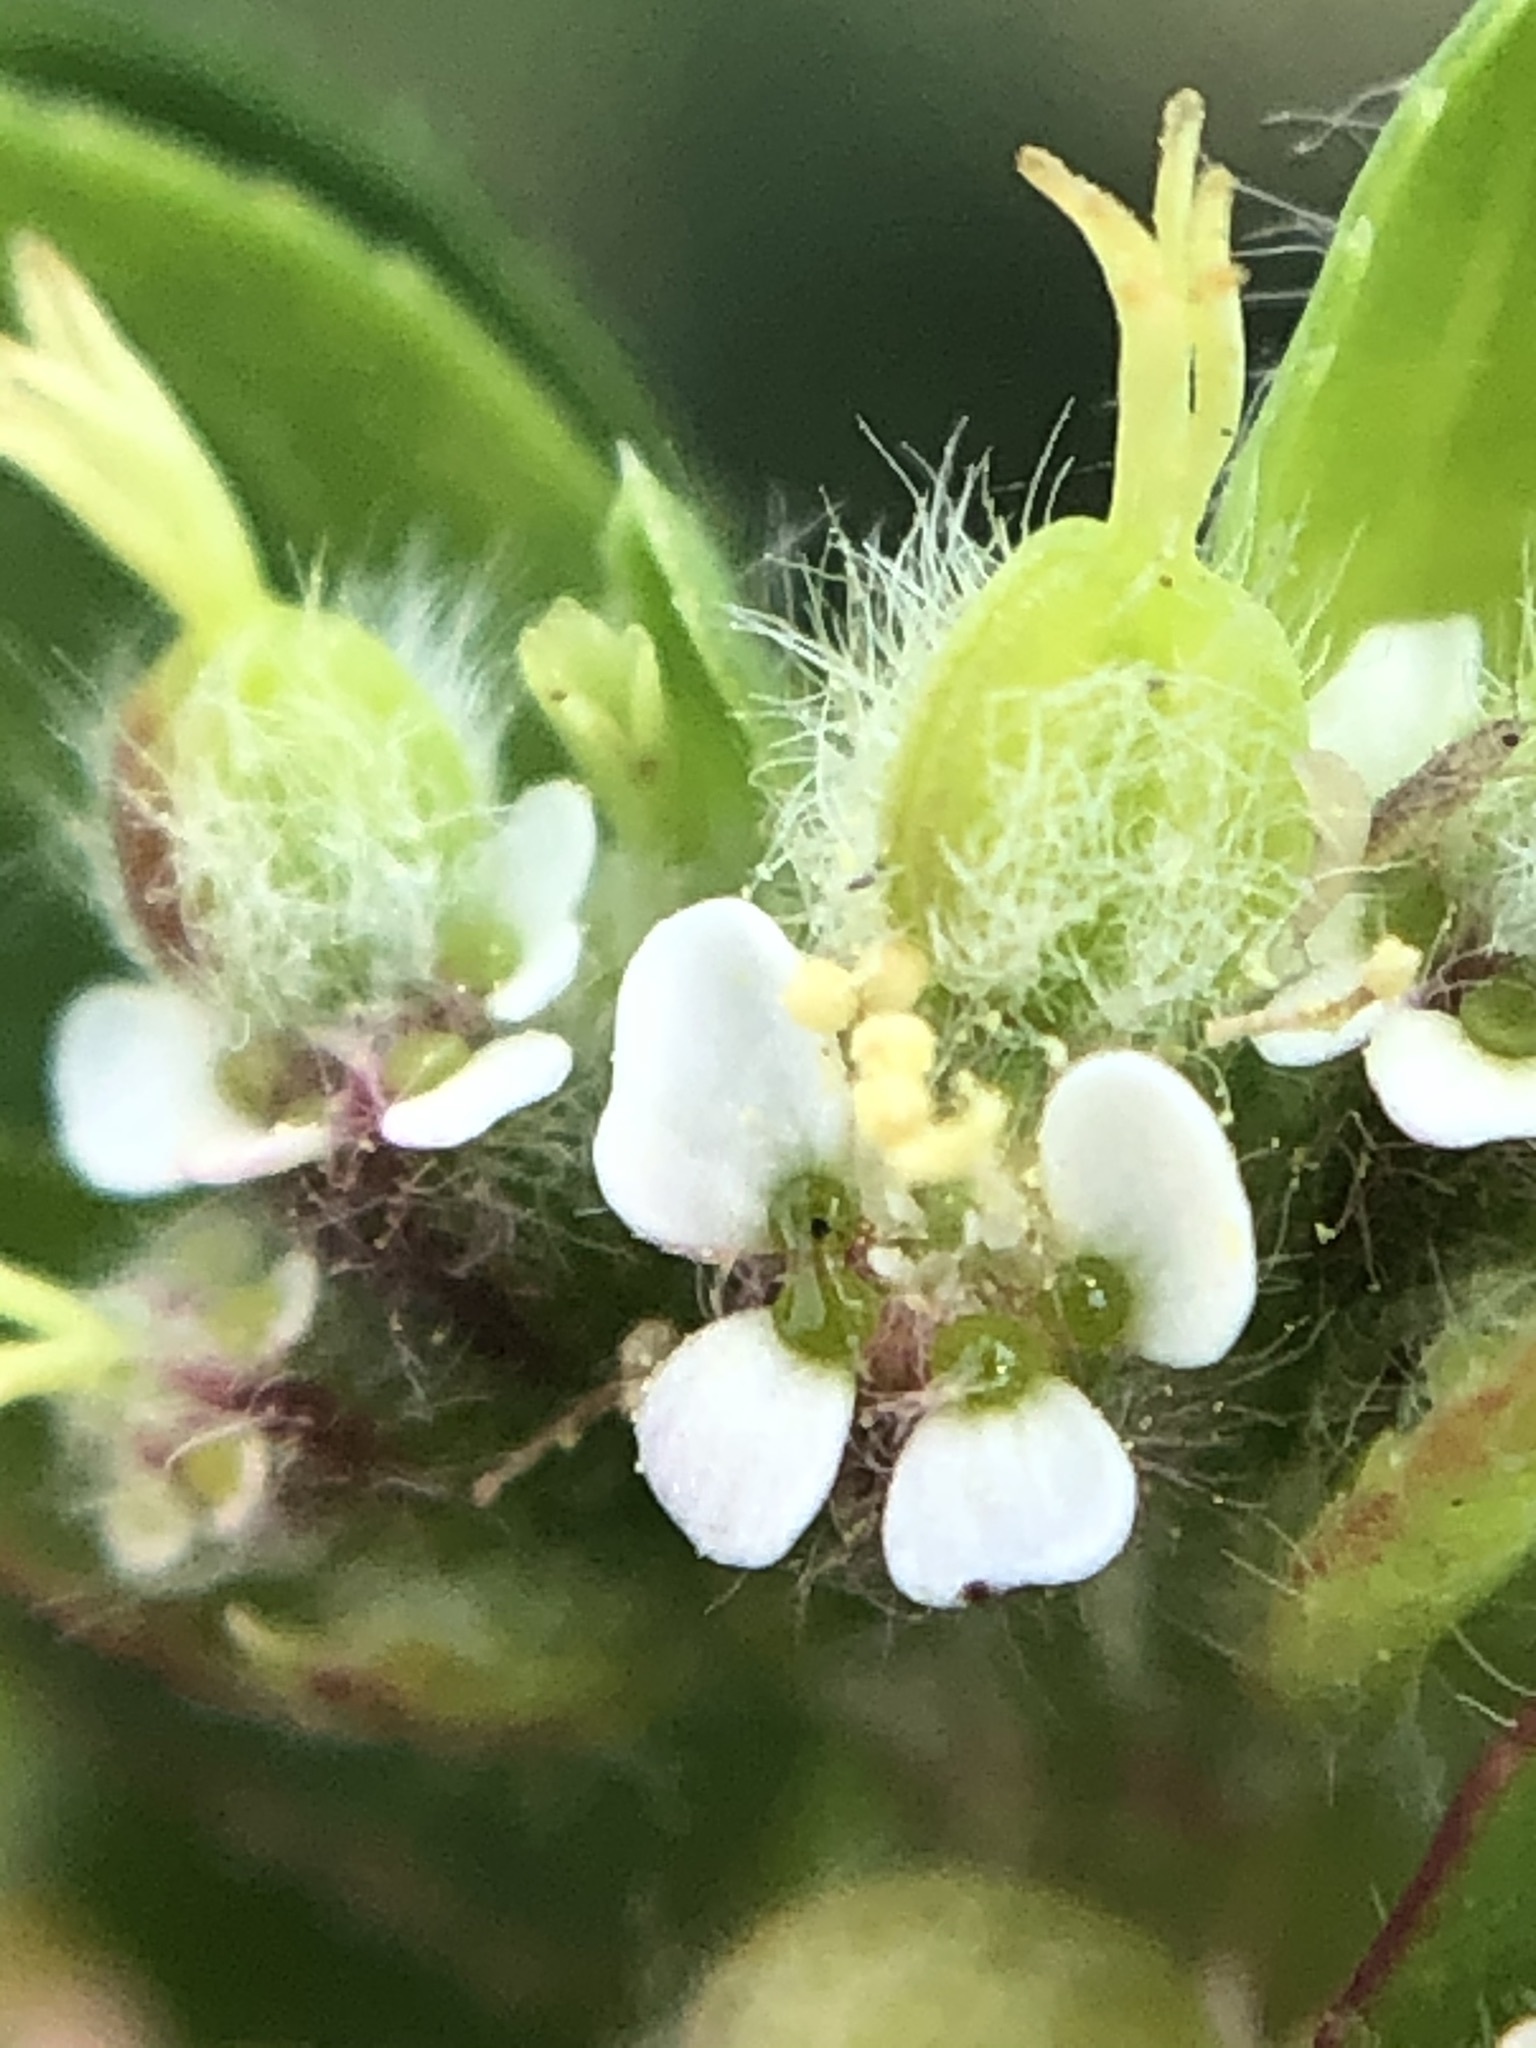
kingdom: Plantae
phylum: Tracheophyta
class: Magnoliopsida
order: Malpighiales
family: Euphorbiaceae
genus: Euphorbia
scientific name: Euphorbia lasiocarpa
